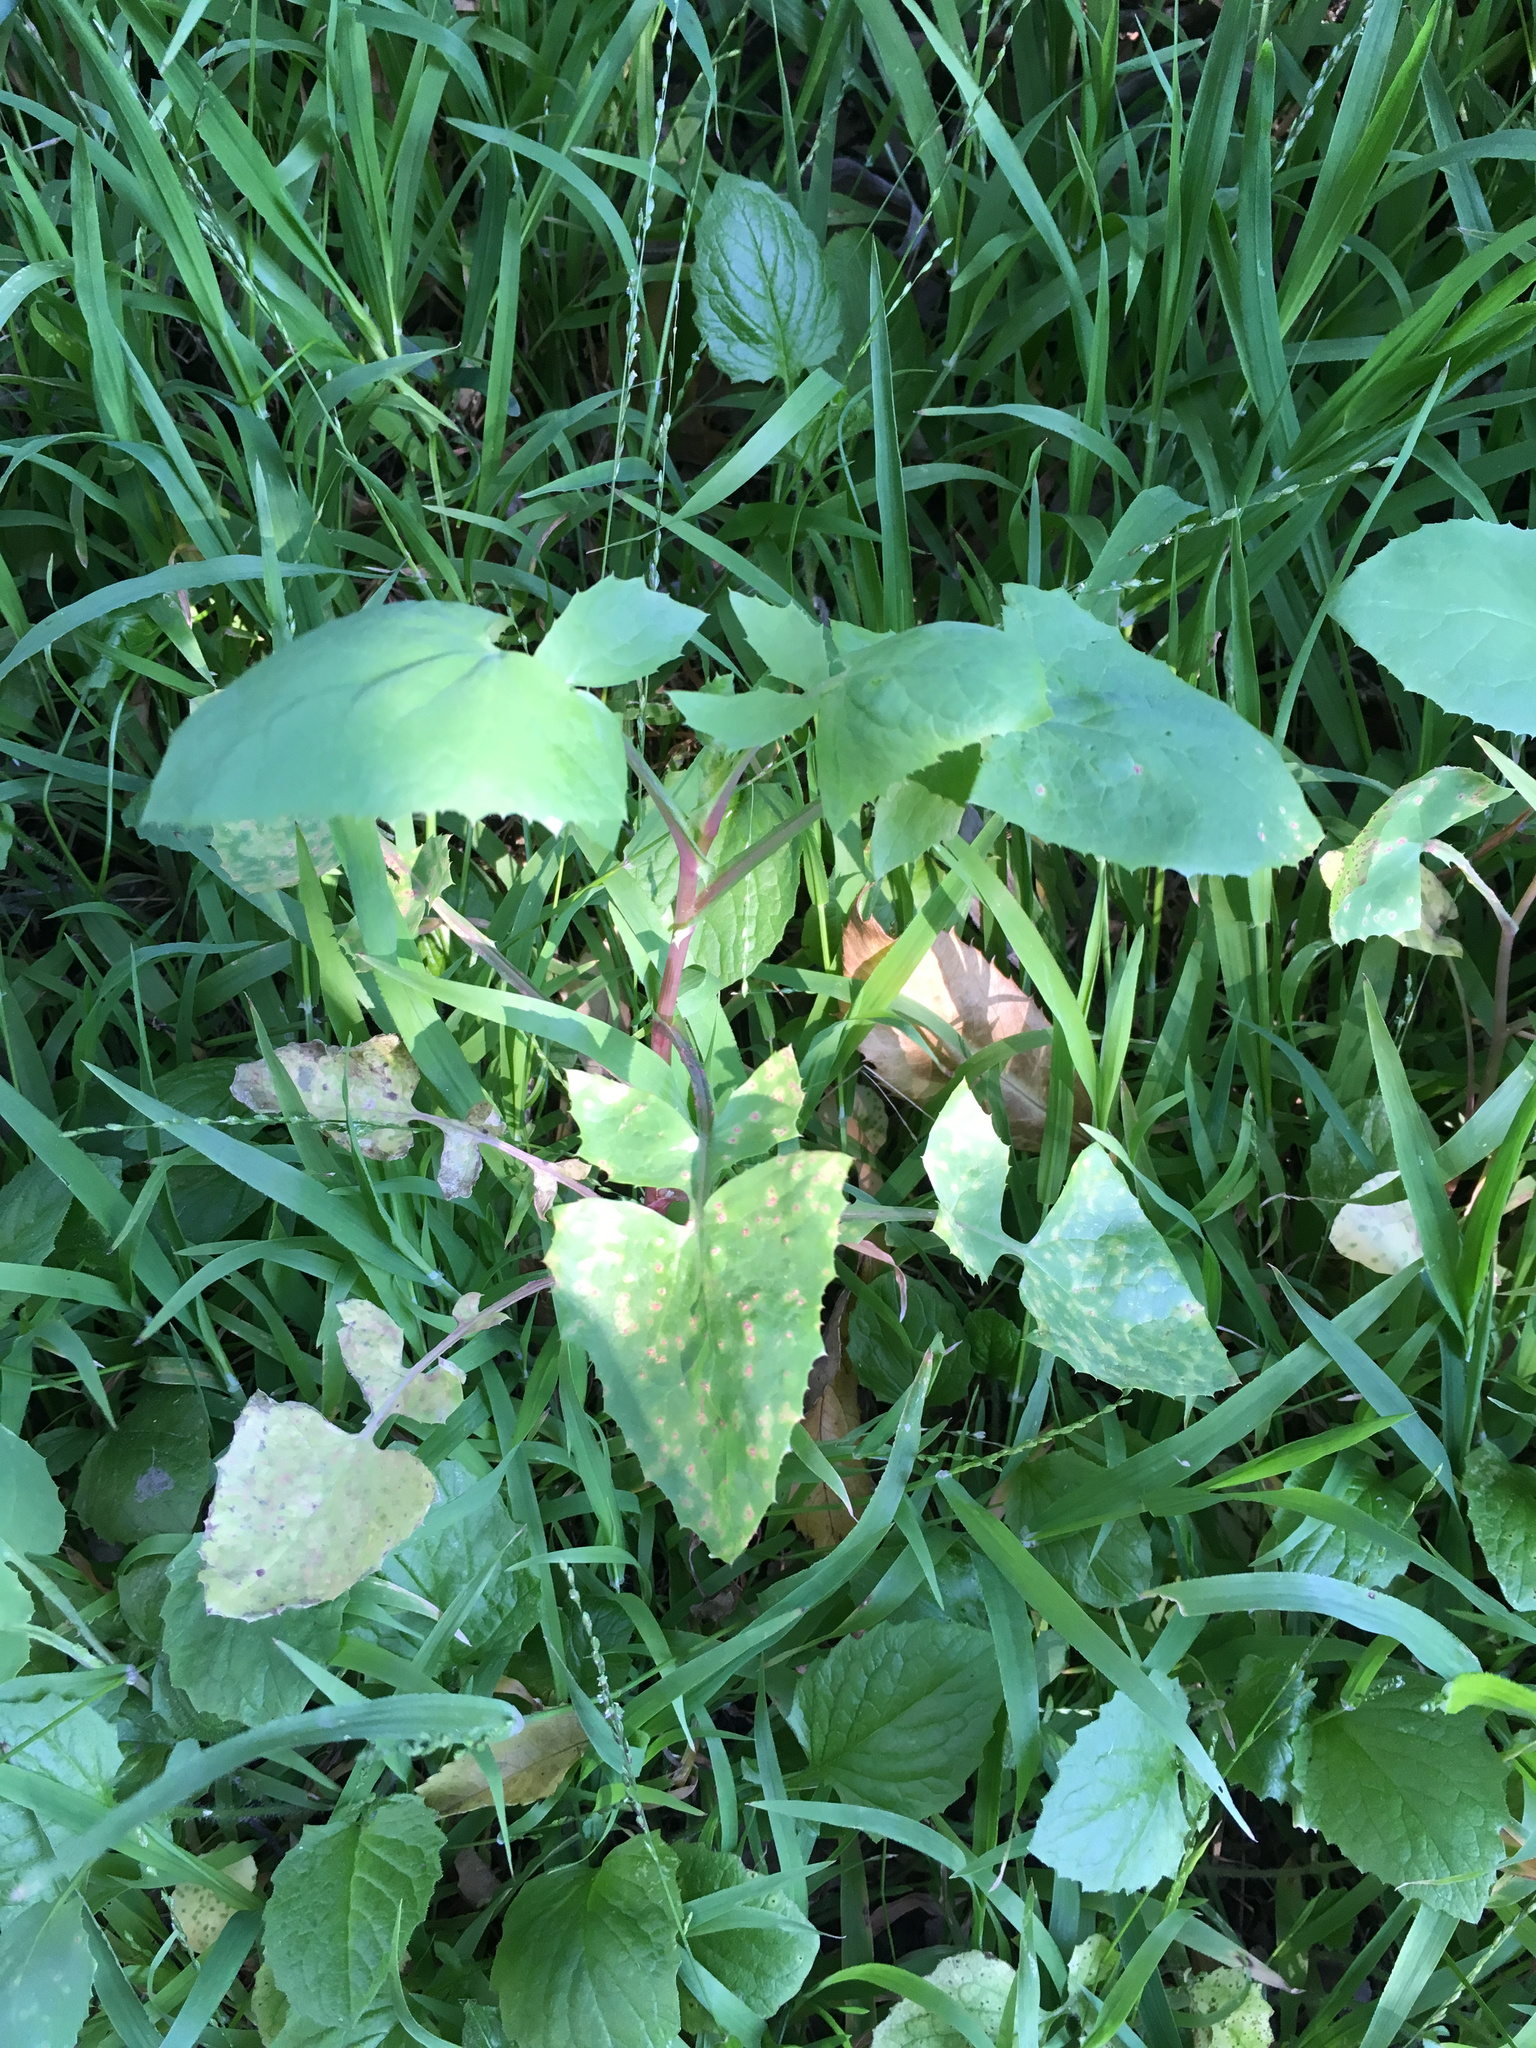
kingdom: Plantae
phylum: Tracheophyta
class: Magnoliopsida
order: Asterales
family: Asteraceae
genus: Sonchus
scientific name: Sonchus oleraceus
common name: Common sowthistle
